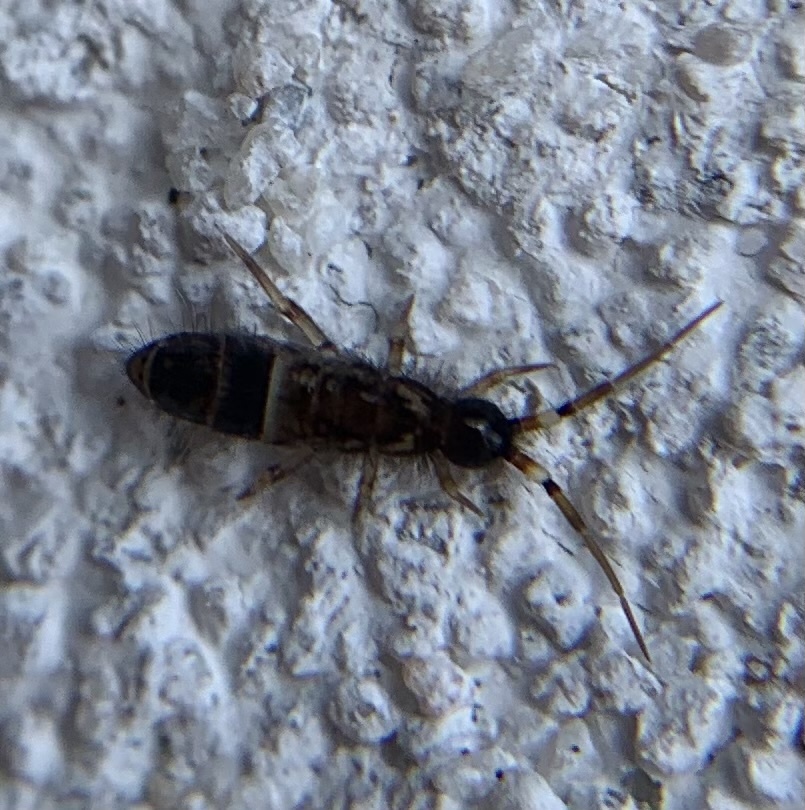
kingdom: Animalia
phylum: Arthropoda
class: Collembola
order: Entomobryomorpha
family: Orchesellidae
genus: Orchesella
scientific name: Orchesella cincta
